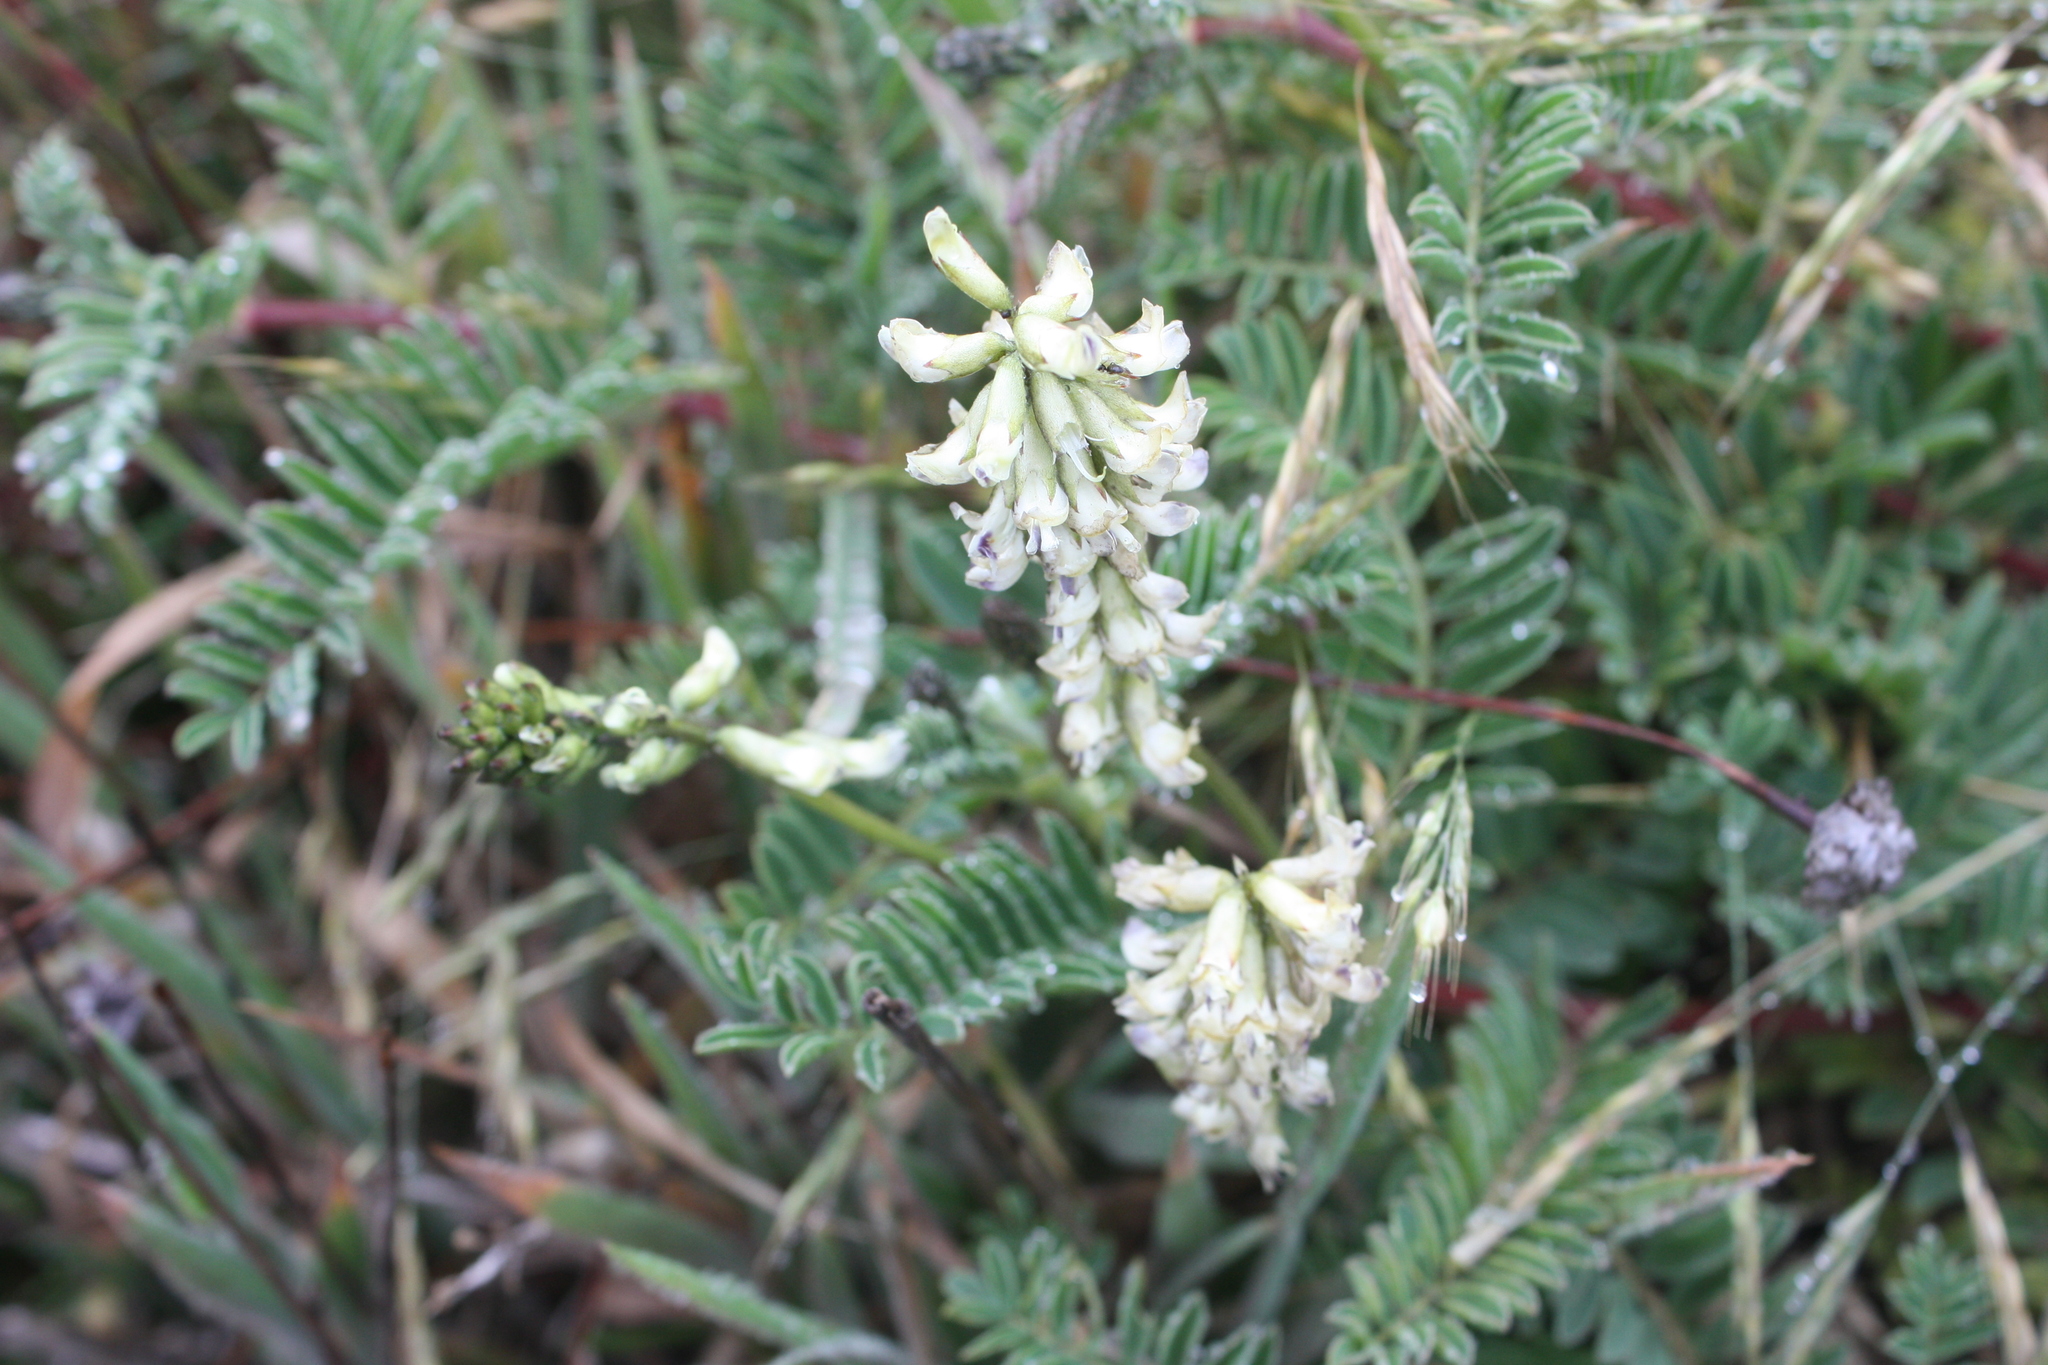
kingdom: Plantae
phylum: Tracheophyta
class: Magnoliopsida
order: Fabales
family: Fabaceae
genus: Astragalus
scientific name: Astragalus nuttallii
